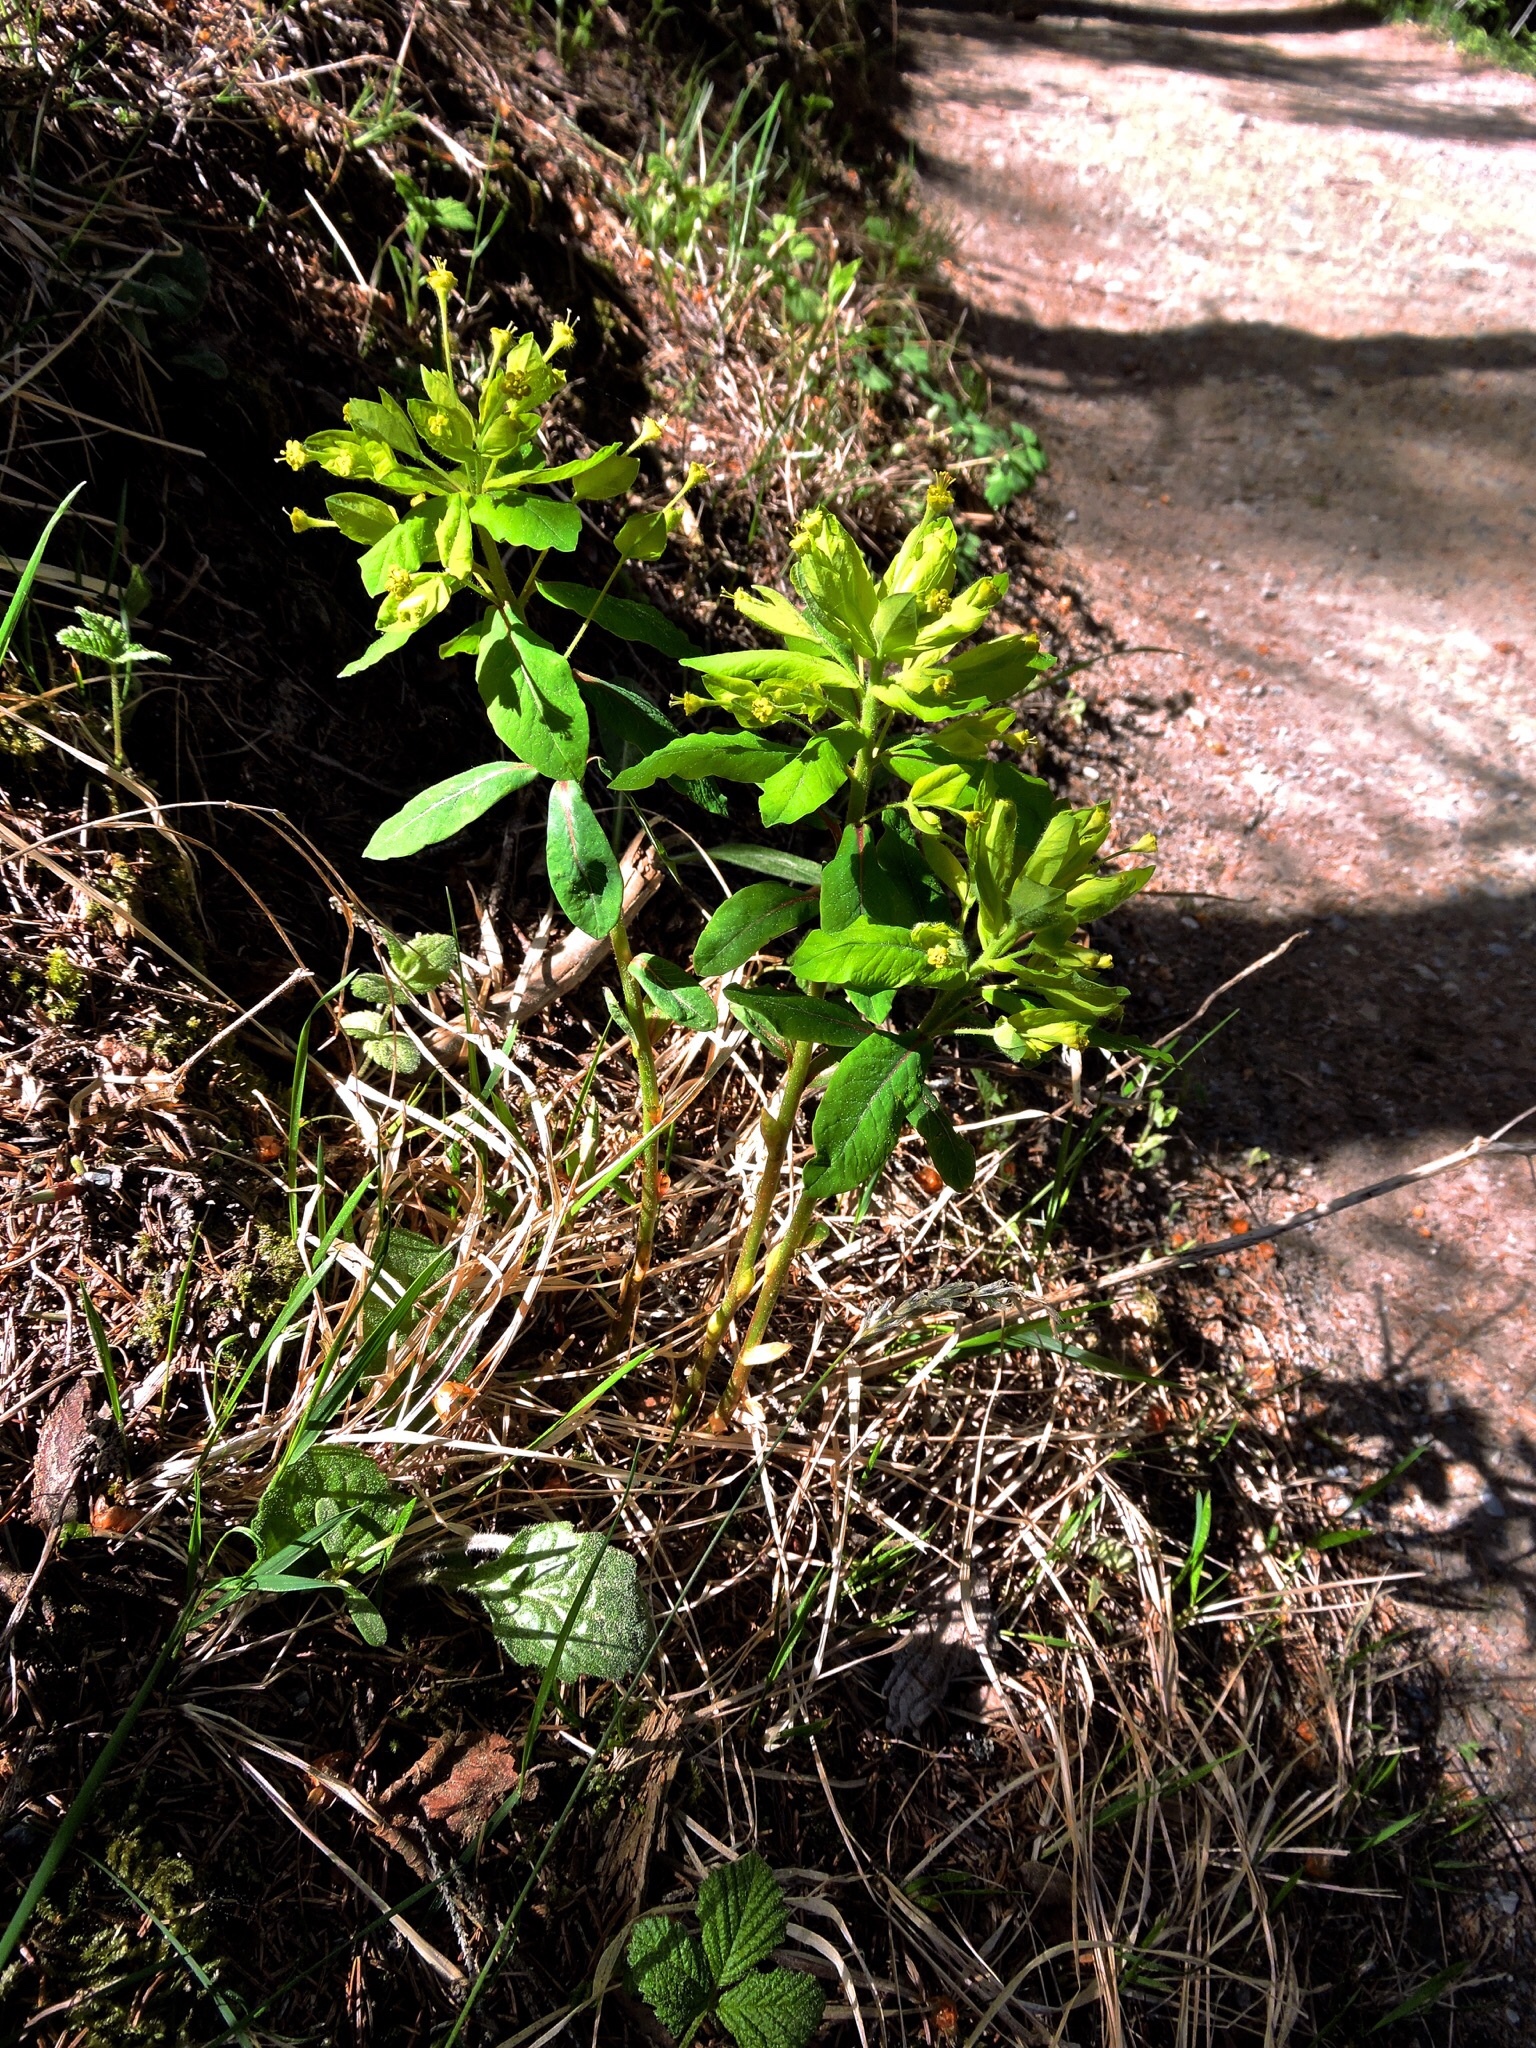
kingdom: Plantae
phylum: Tracheophyta
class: Magnoliopsida
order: Malpighiales
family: Euphorbiaceae
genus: Euphorbia
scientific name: Euphorbia carniolica
